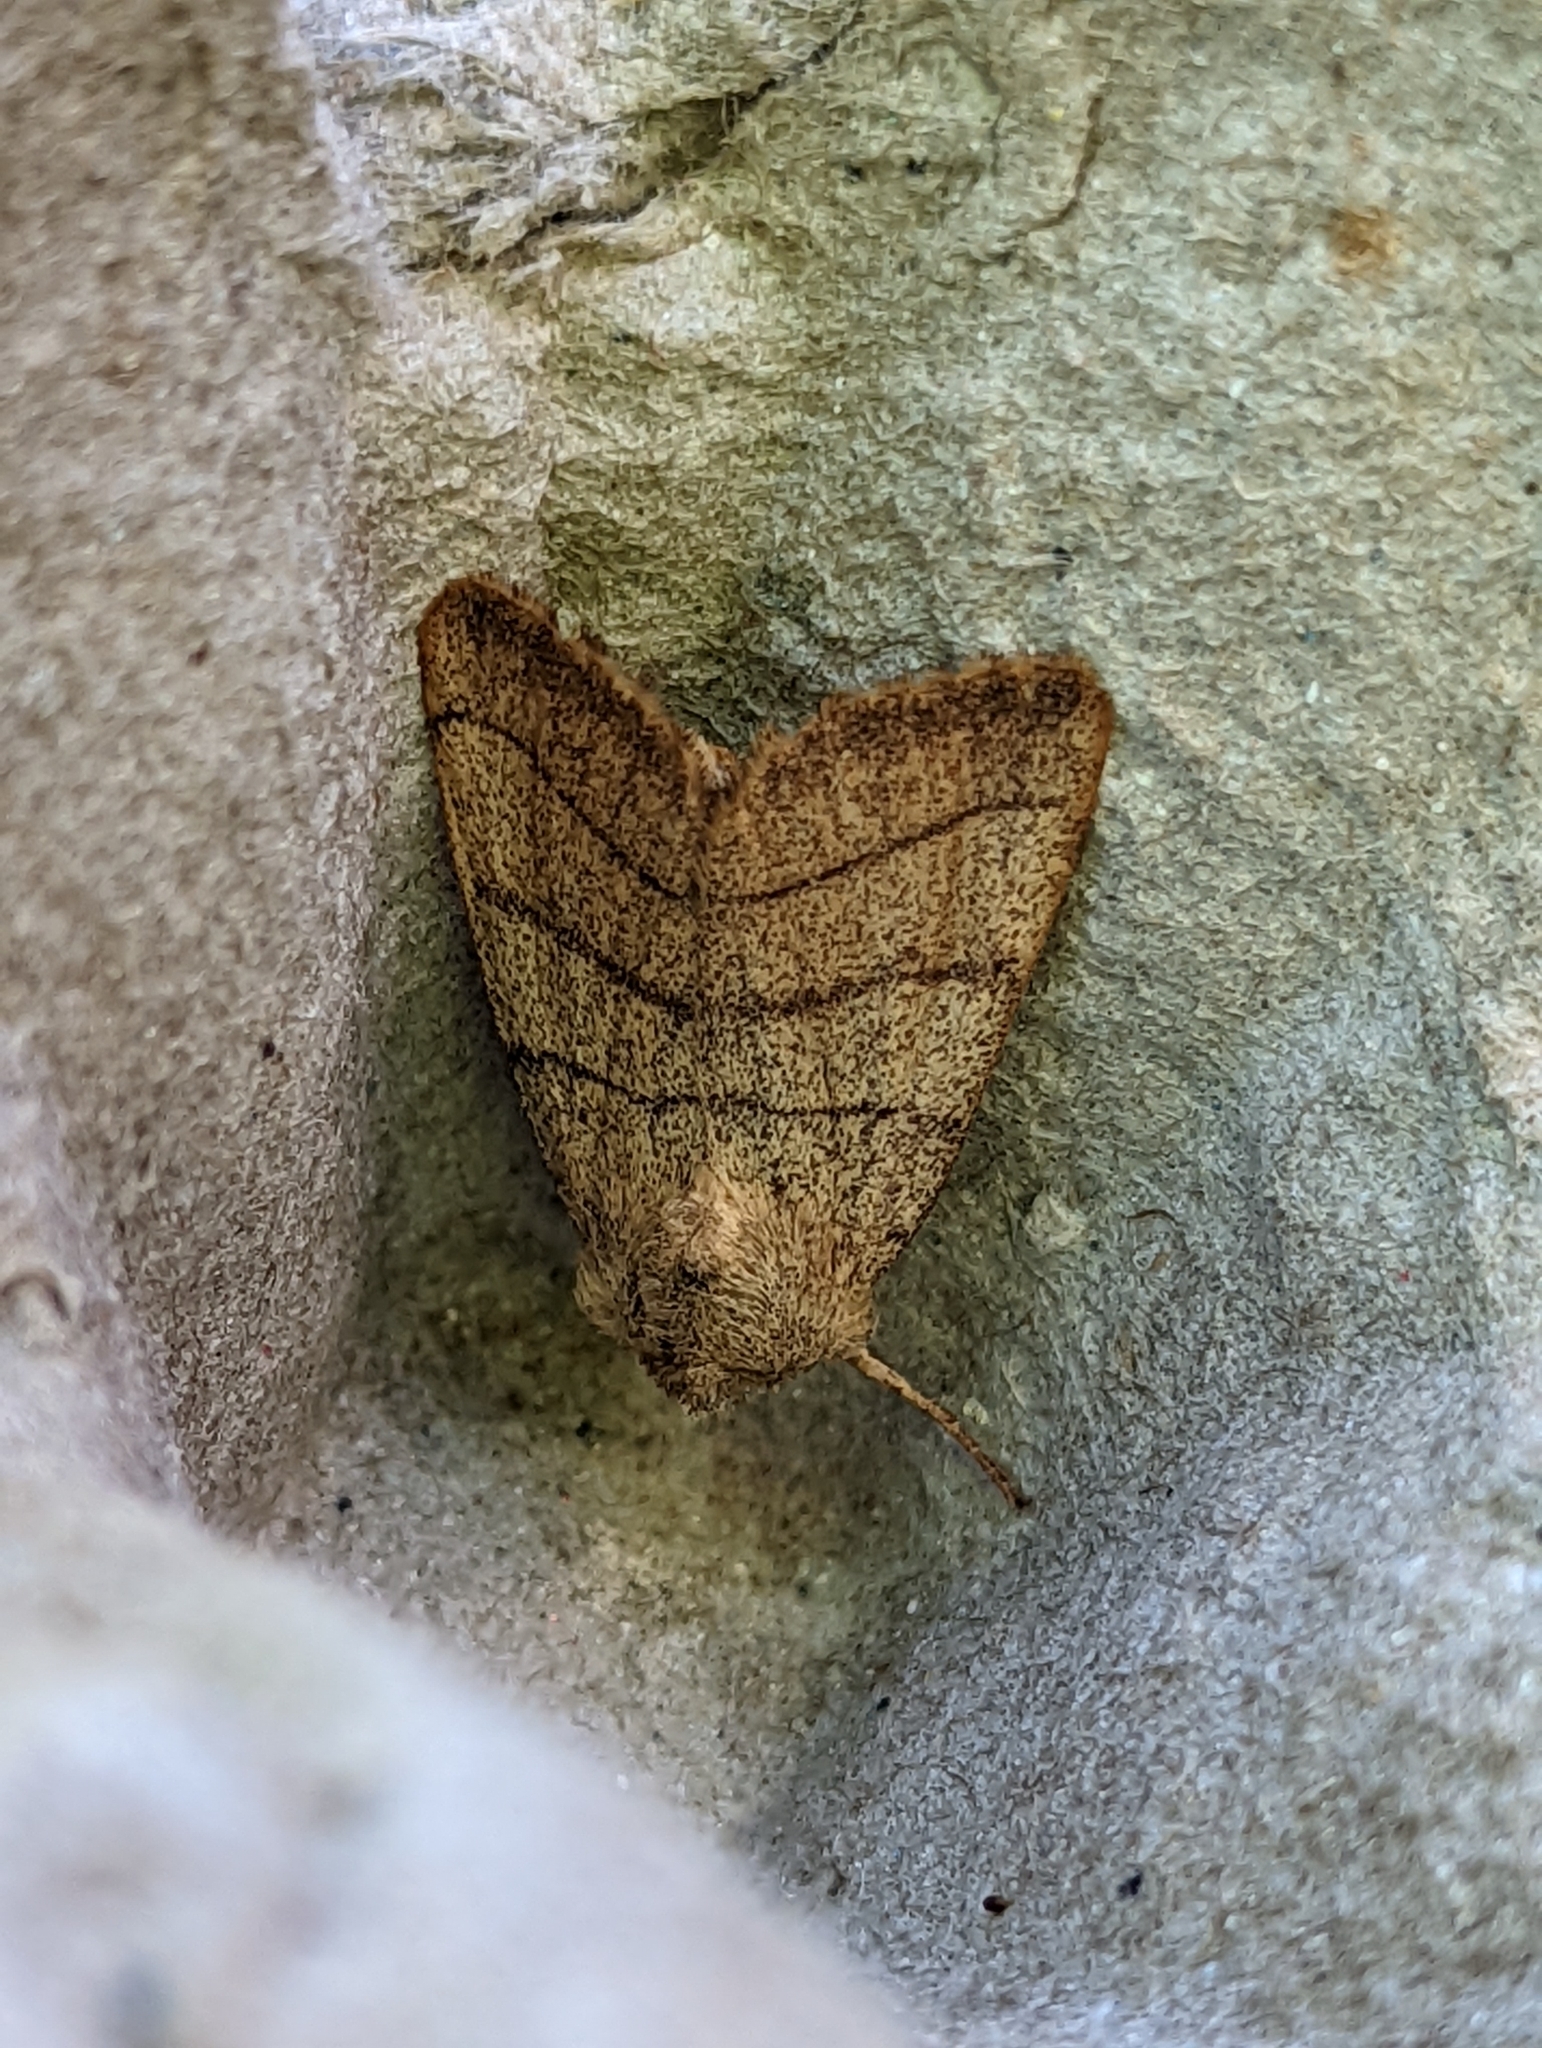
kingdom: Animalia
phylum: Arthropoda
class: Insecta
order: Lepidoptera
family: Noctuidae
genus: Charanyca
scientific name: Charanyca trigrammica
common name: Treble lines
